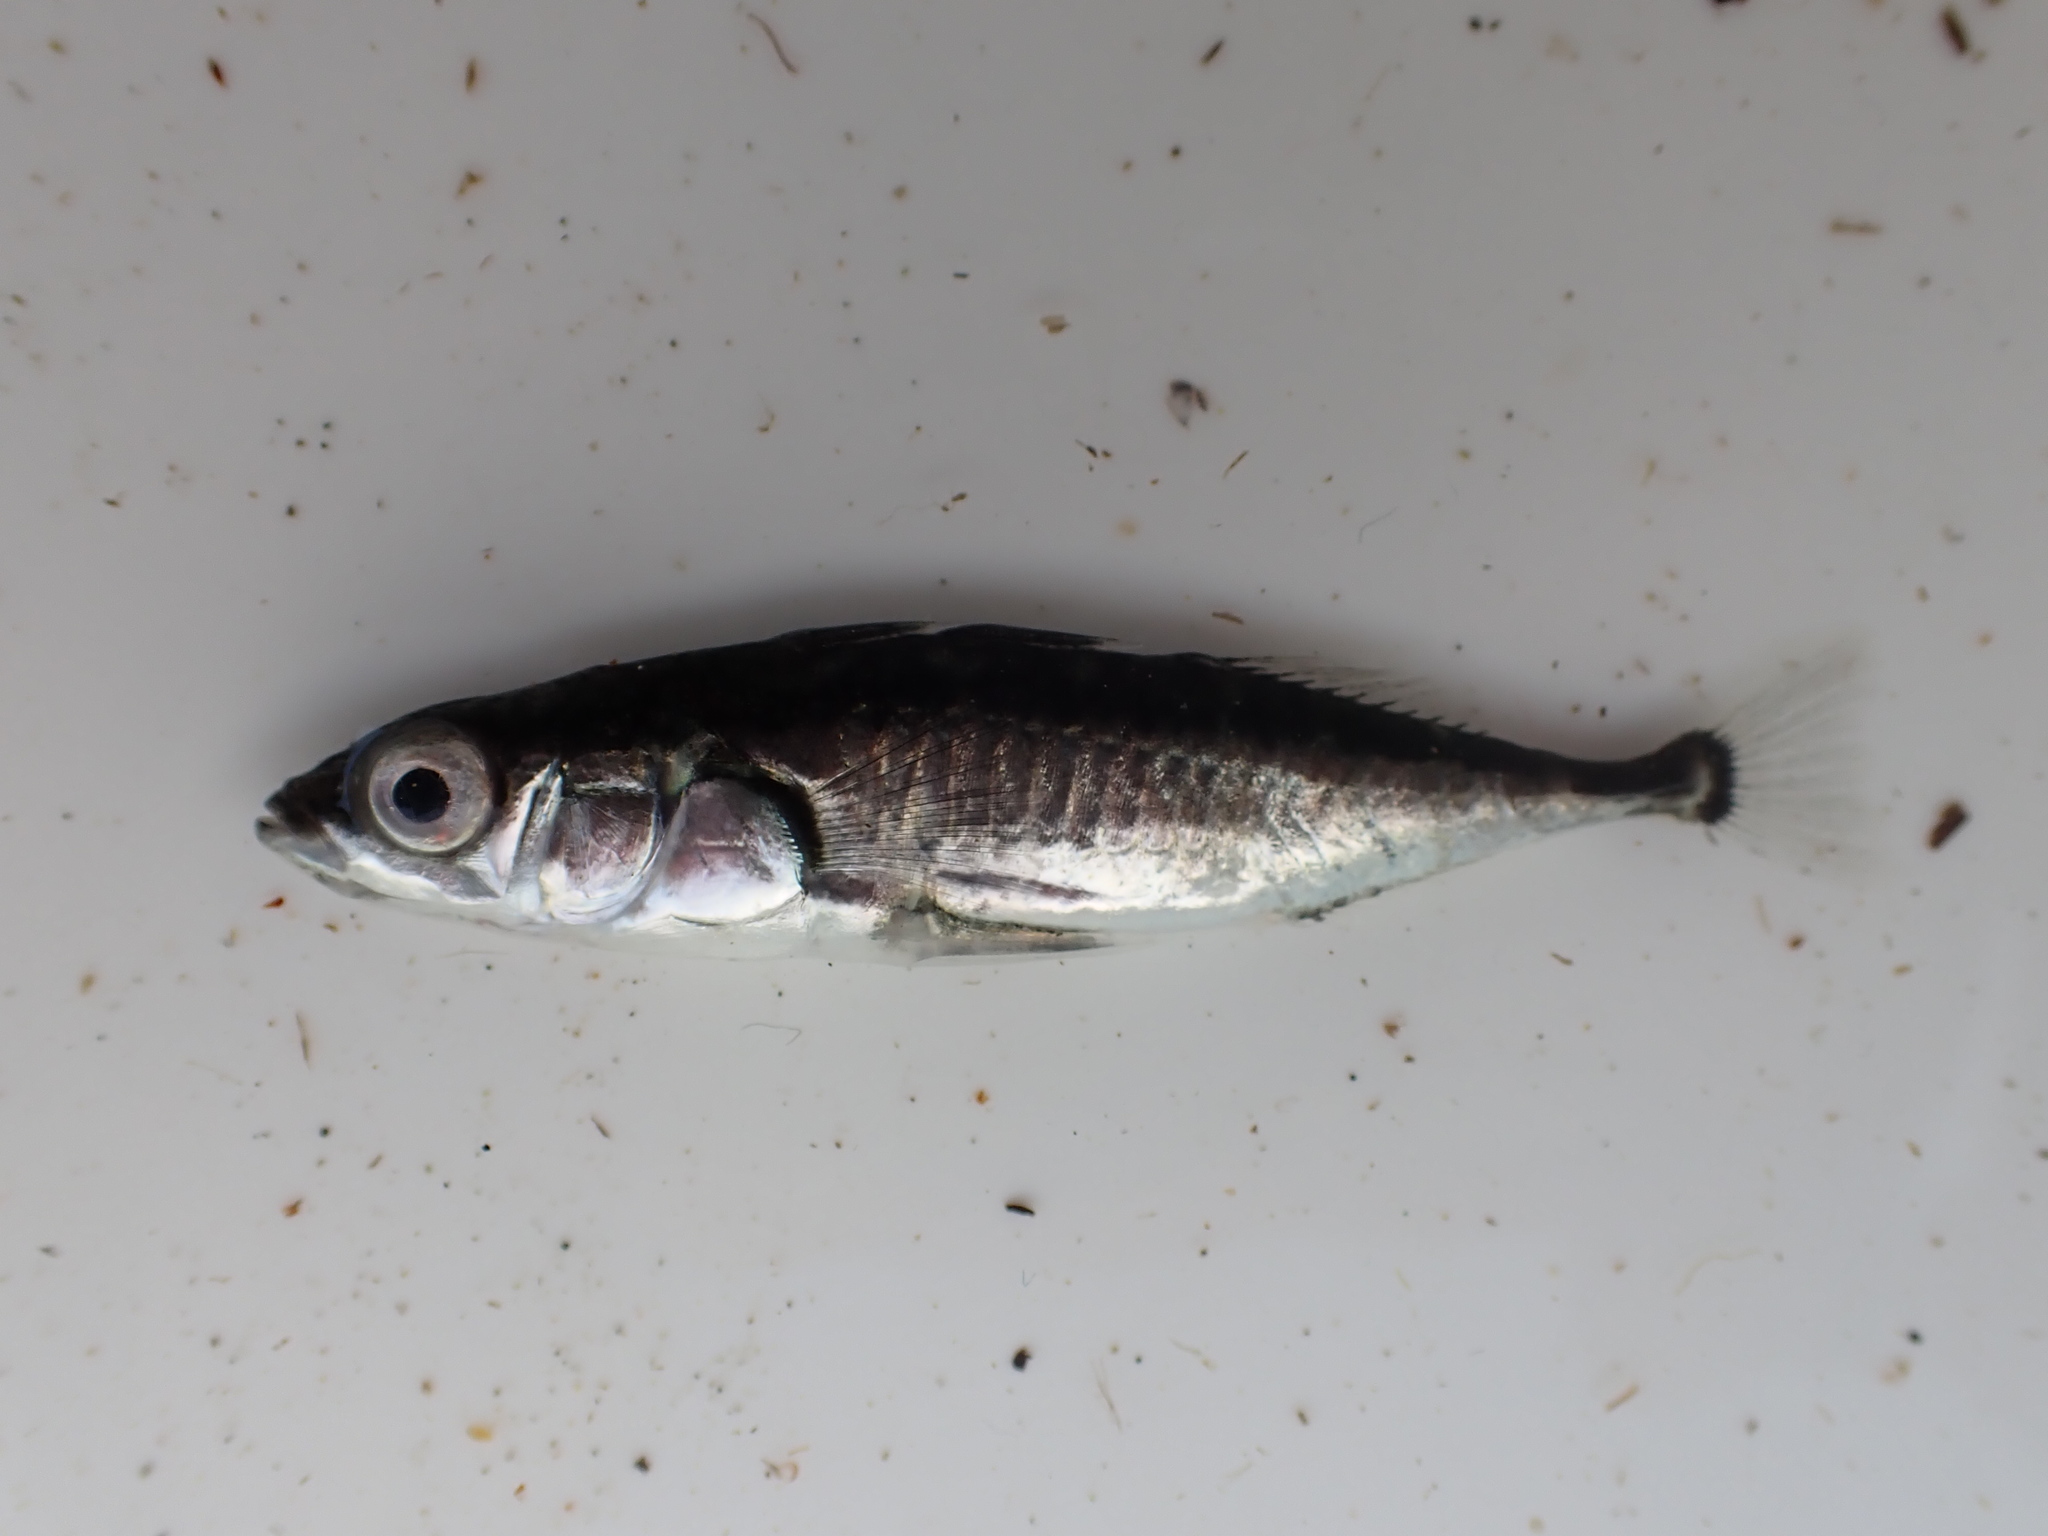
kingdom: Animalia
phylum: Chordata
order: Gasterosteiformes
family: Gasterosteidae
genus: Gasterosteus
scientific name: Gasterosteus aculeatus
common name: Three-spined stickleback
